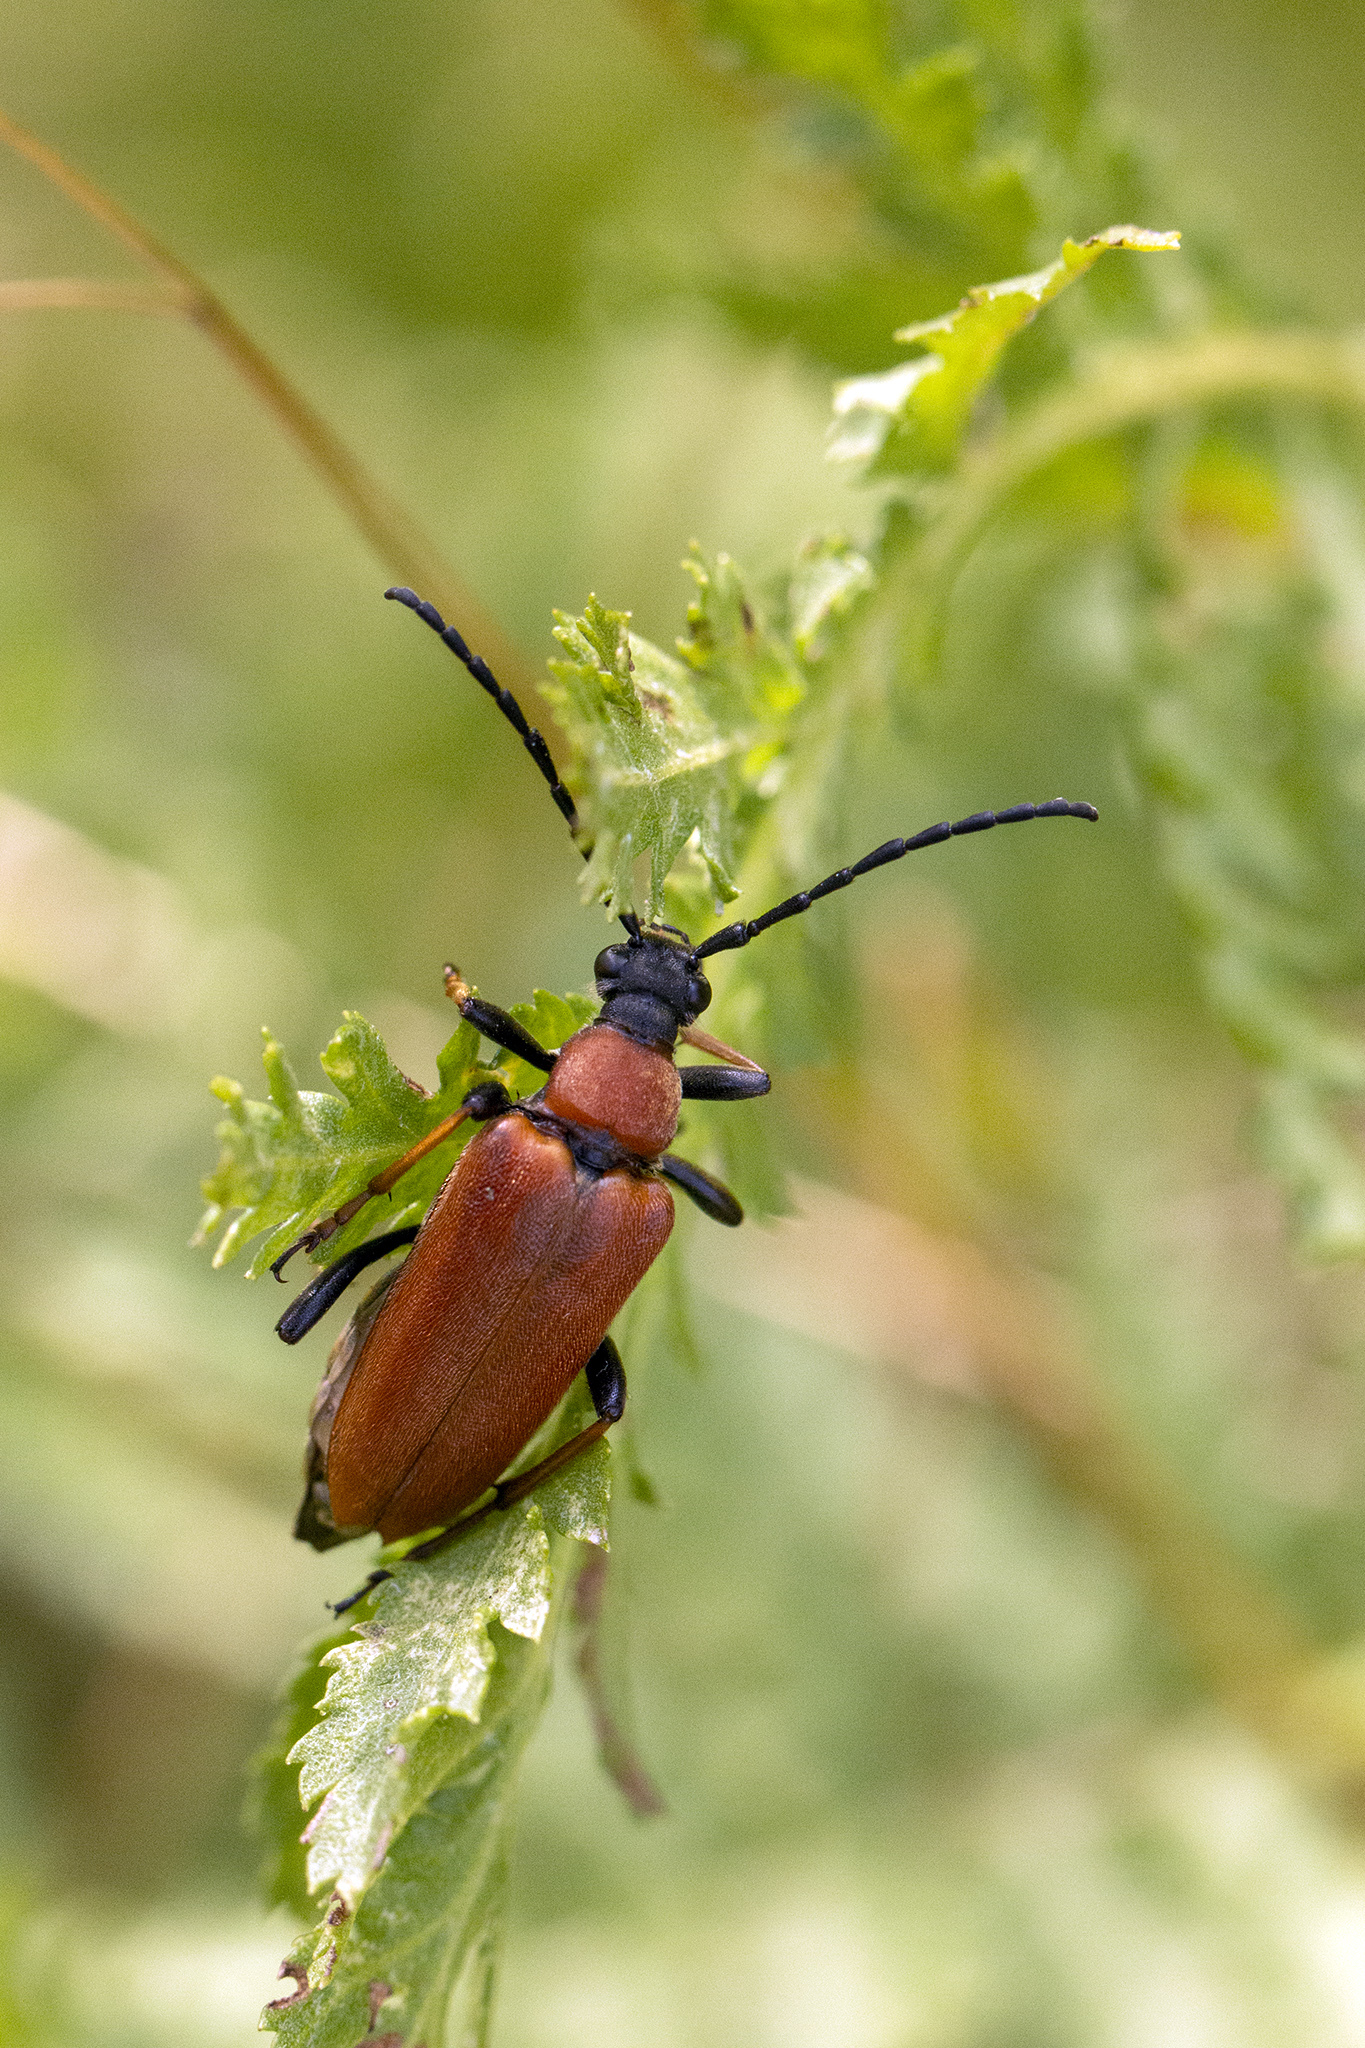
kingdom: Animalia
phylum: Arthropoda
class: Insecta
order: Coleoptera
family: Cerambycidae
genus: Stictoleptura
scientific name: Stictoleptura rubra
